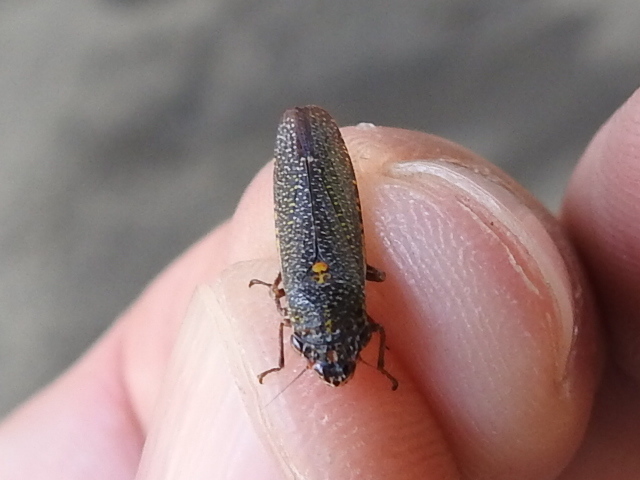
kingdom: Animalia
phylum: Arthropoda
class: Insecta
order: Hemiptera
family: Cicadellidae
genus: Paraulacizes
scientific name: Paraulacizes irrorata
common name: Speckled sharpshooter
